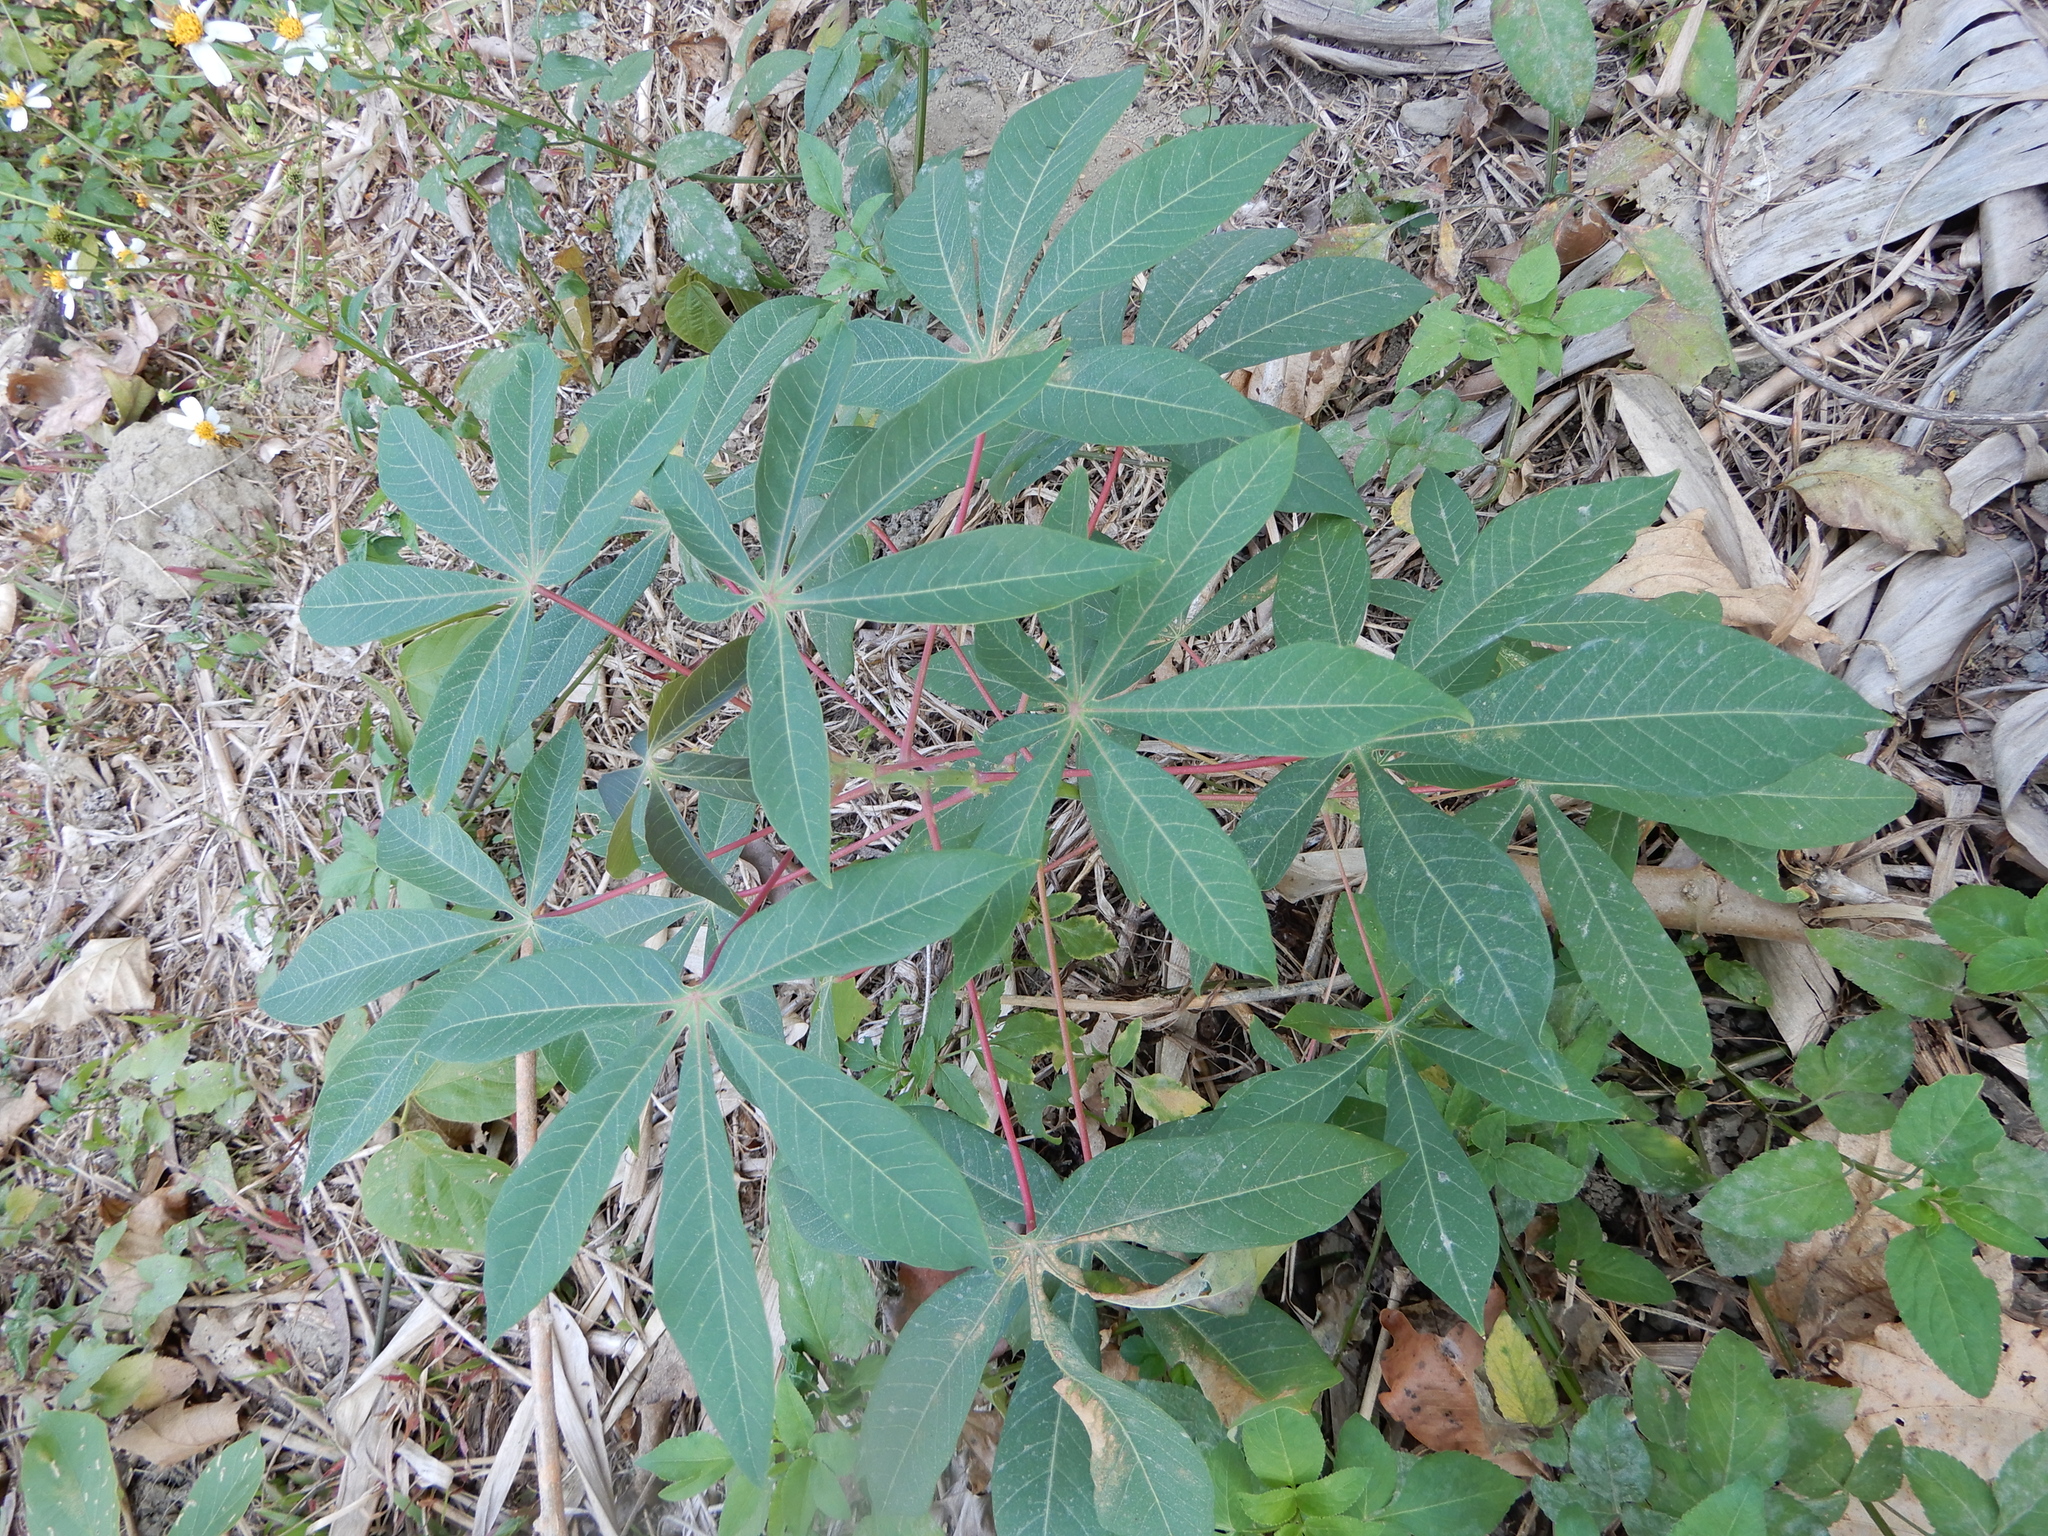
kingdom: Plantae
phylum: Tracheophyta
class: Magnoliopsida
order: Malpighiales
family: Euphorbiaceae
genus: Manihot
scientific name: Manihot esculenta
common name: Cassava
